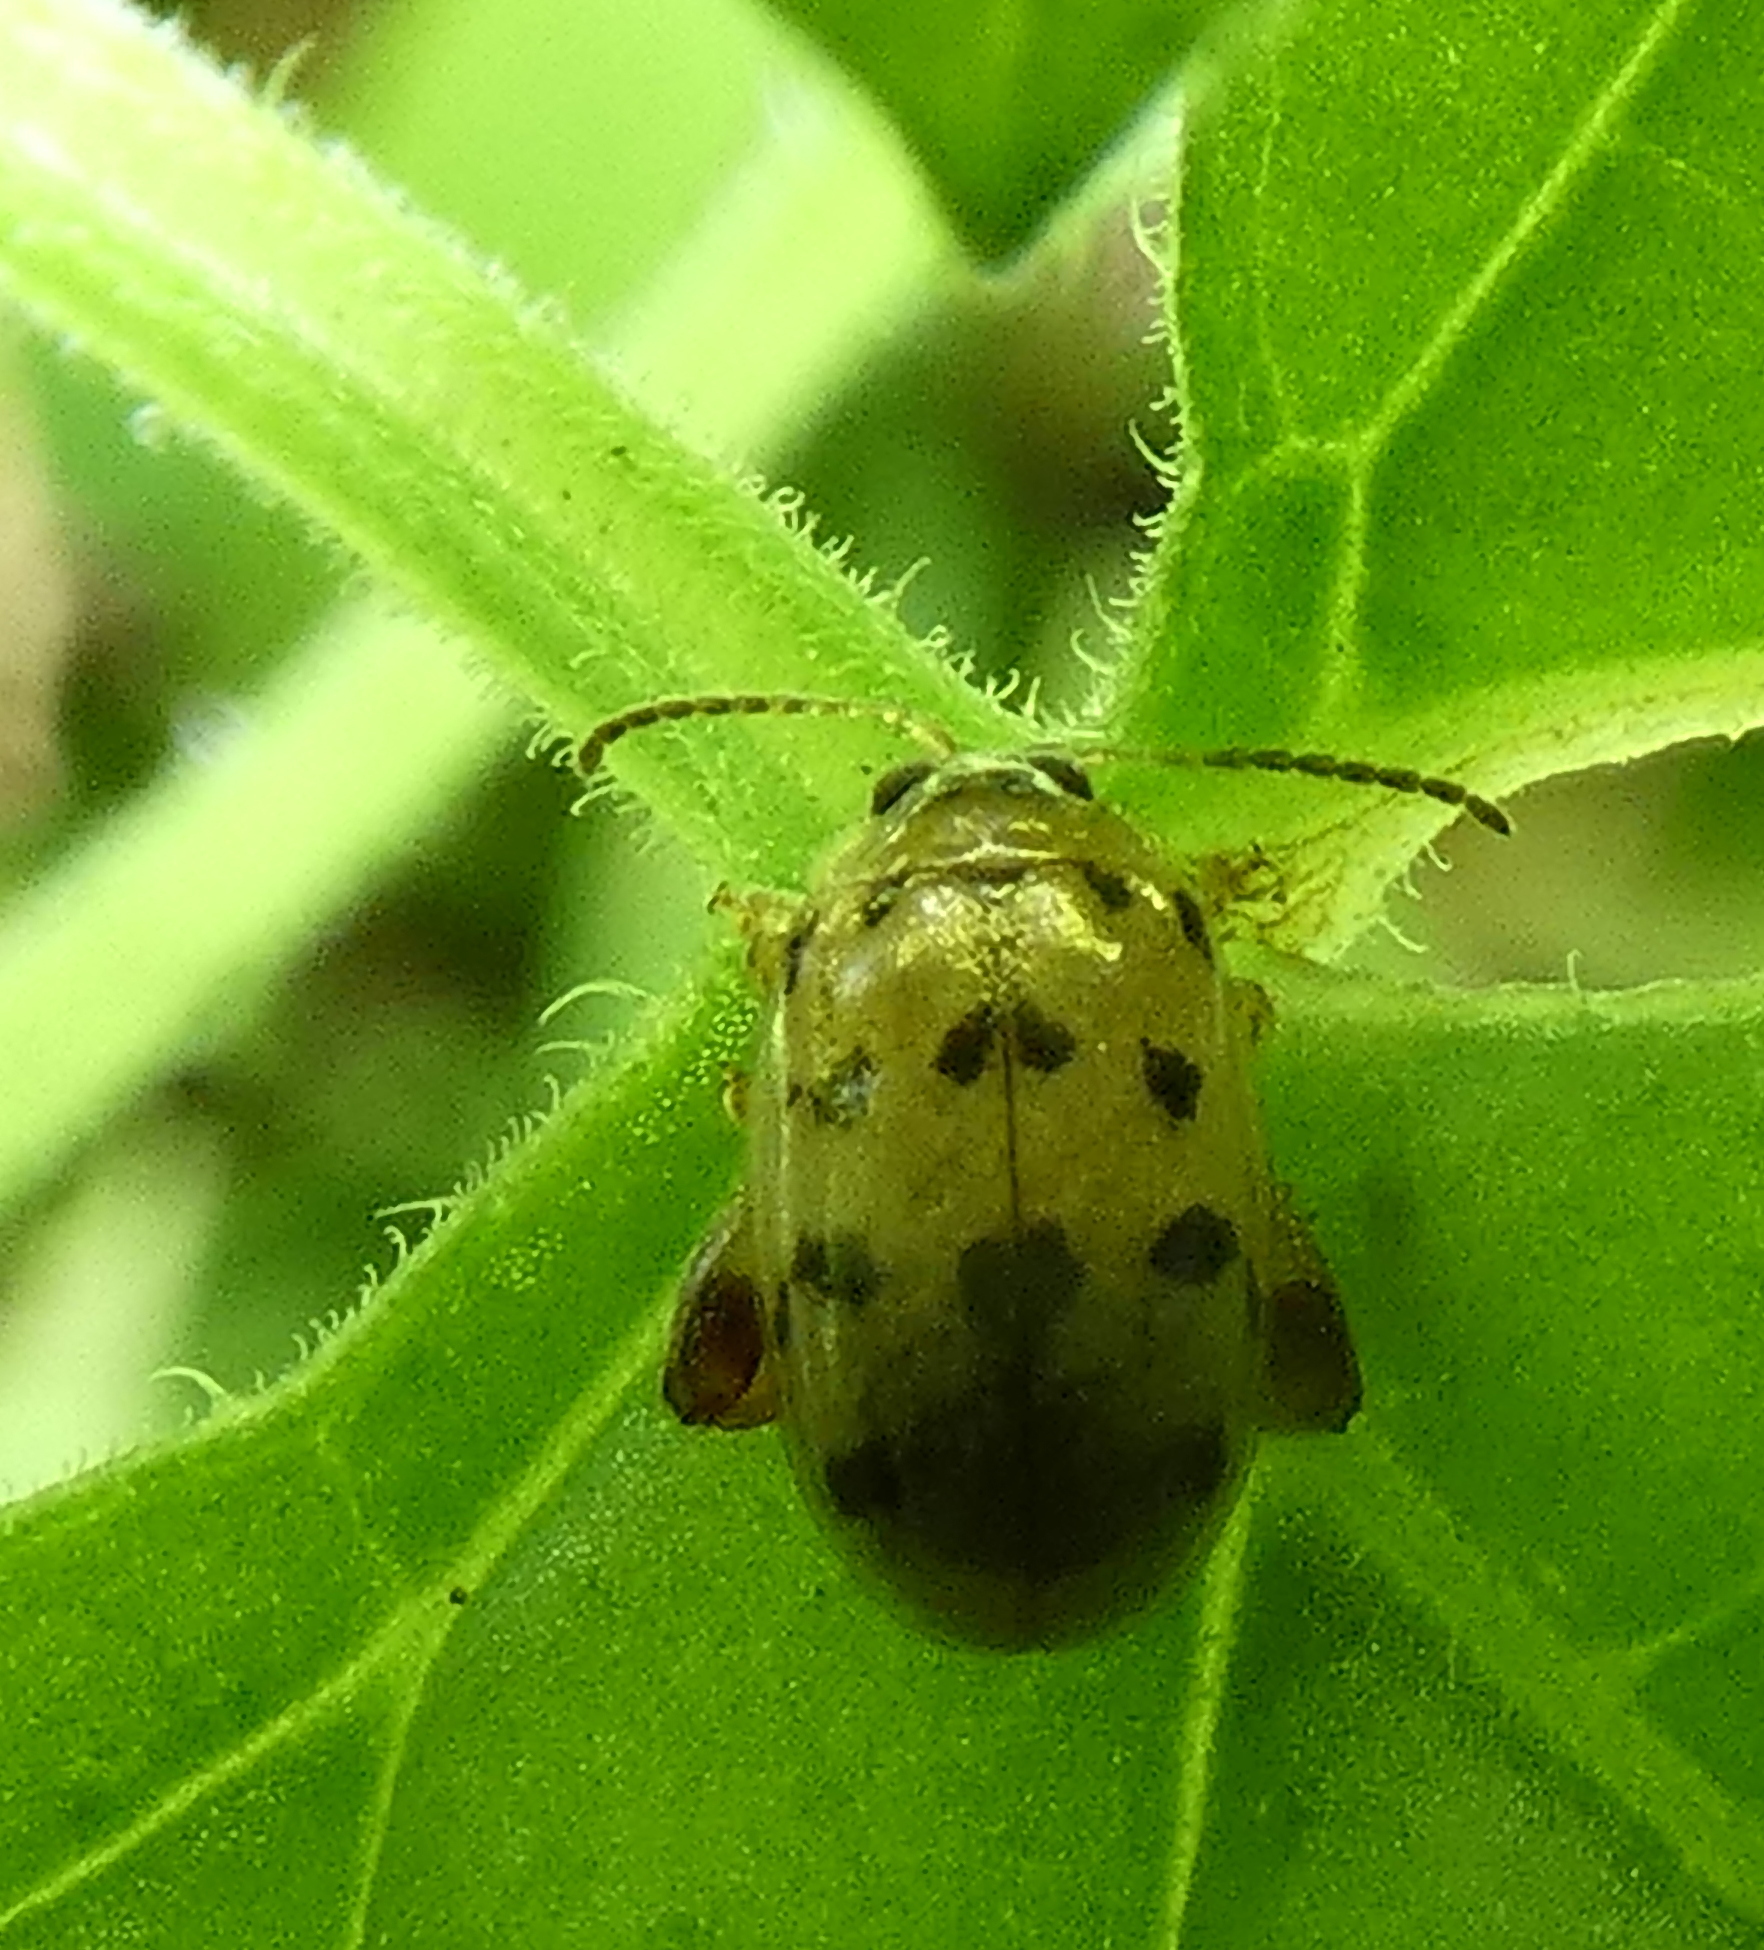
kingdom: Animalia
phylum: Arthropoda
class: Insecta
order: Coleoptera
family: Chrysomelidae
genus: Alagoasa
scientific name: Alagoasa
